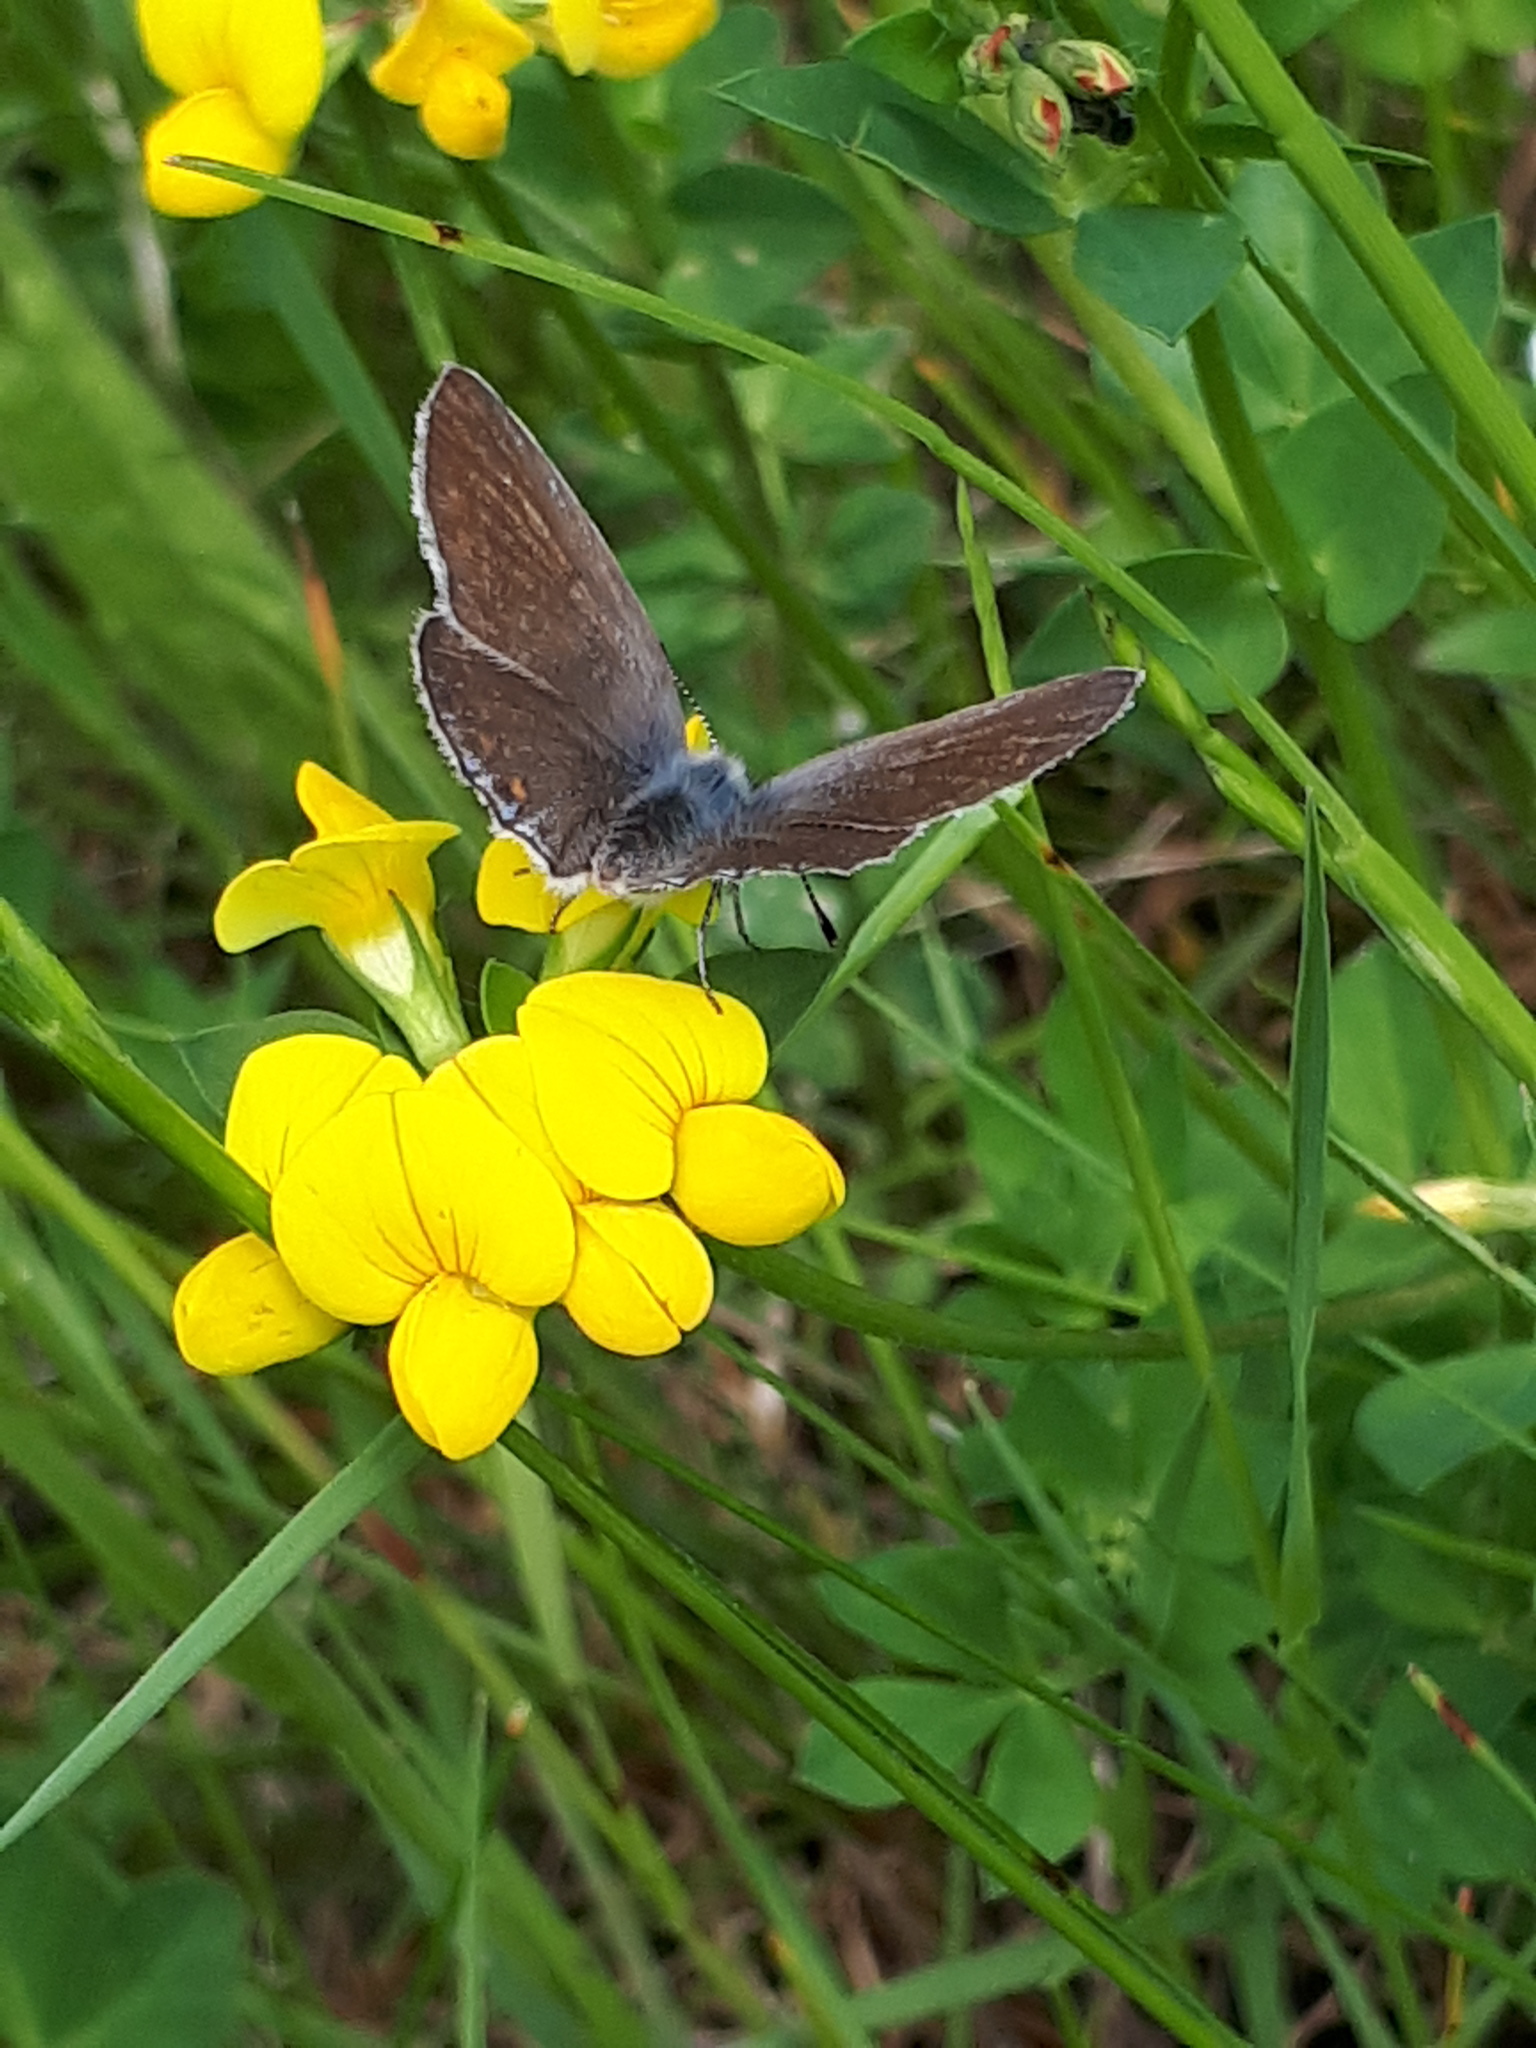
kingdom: Plantae
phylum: Tracheophyta
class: Magnoliopsida
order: Fabales
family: Fabaceae
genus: Lotus
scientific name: Lotus corniculatus
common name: Common bird's-foot-trefoil
